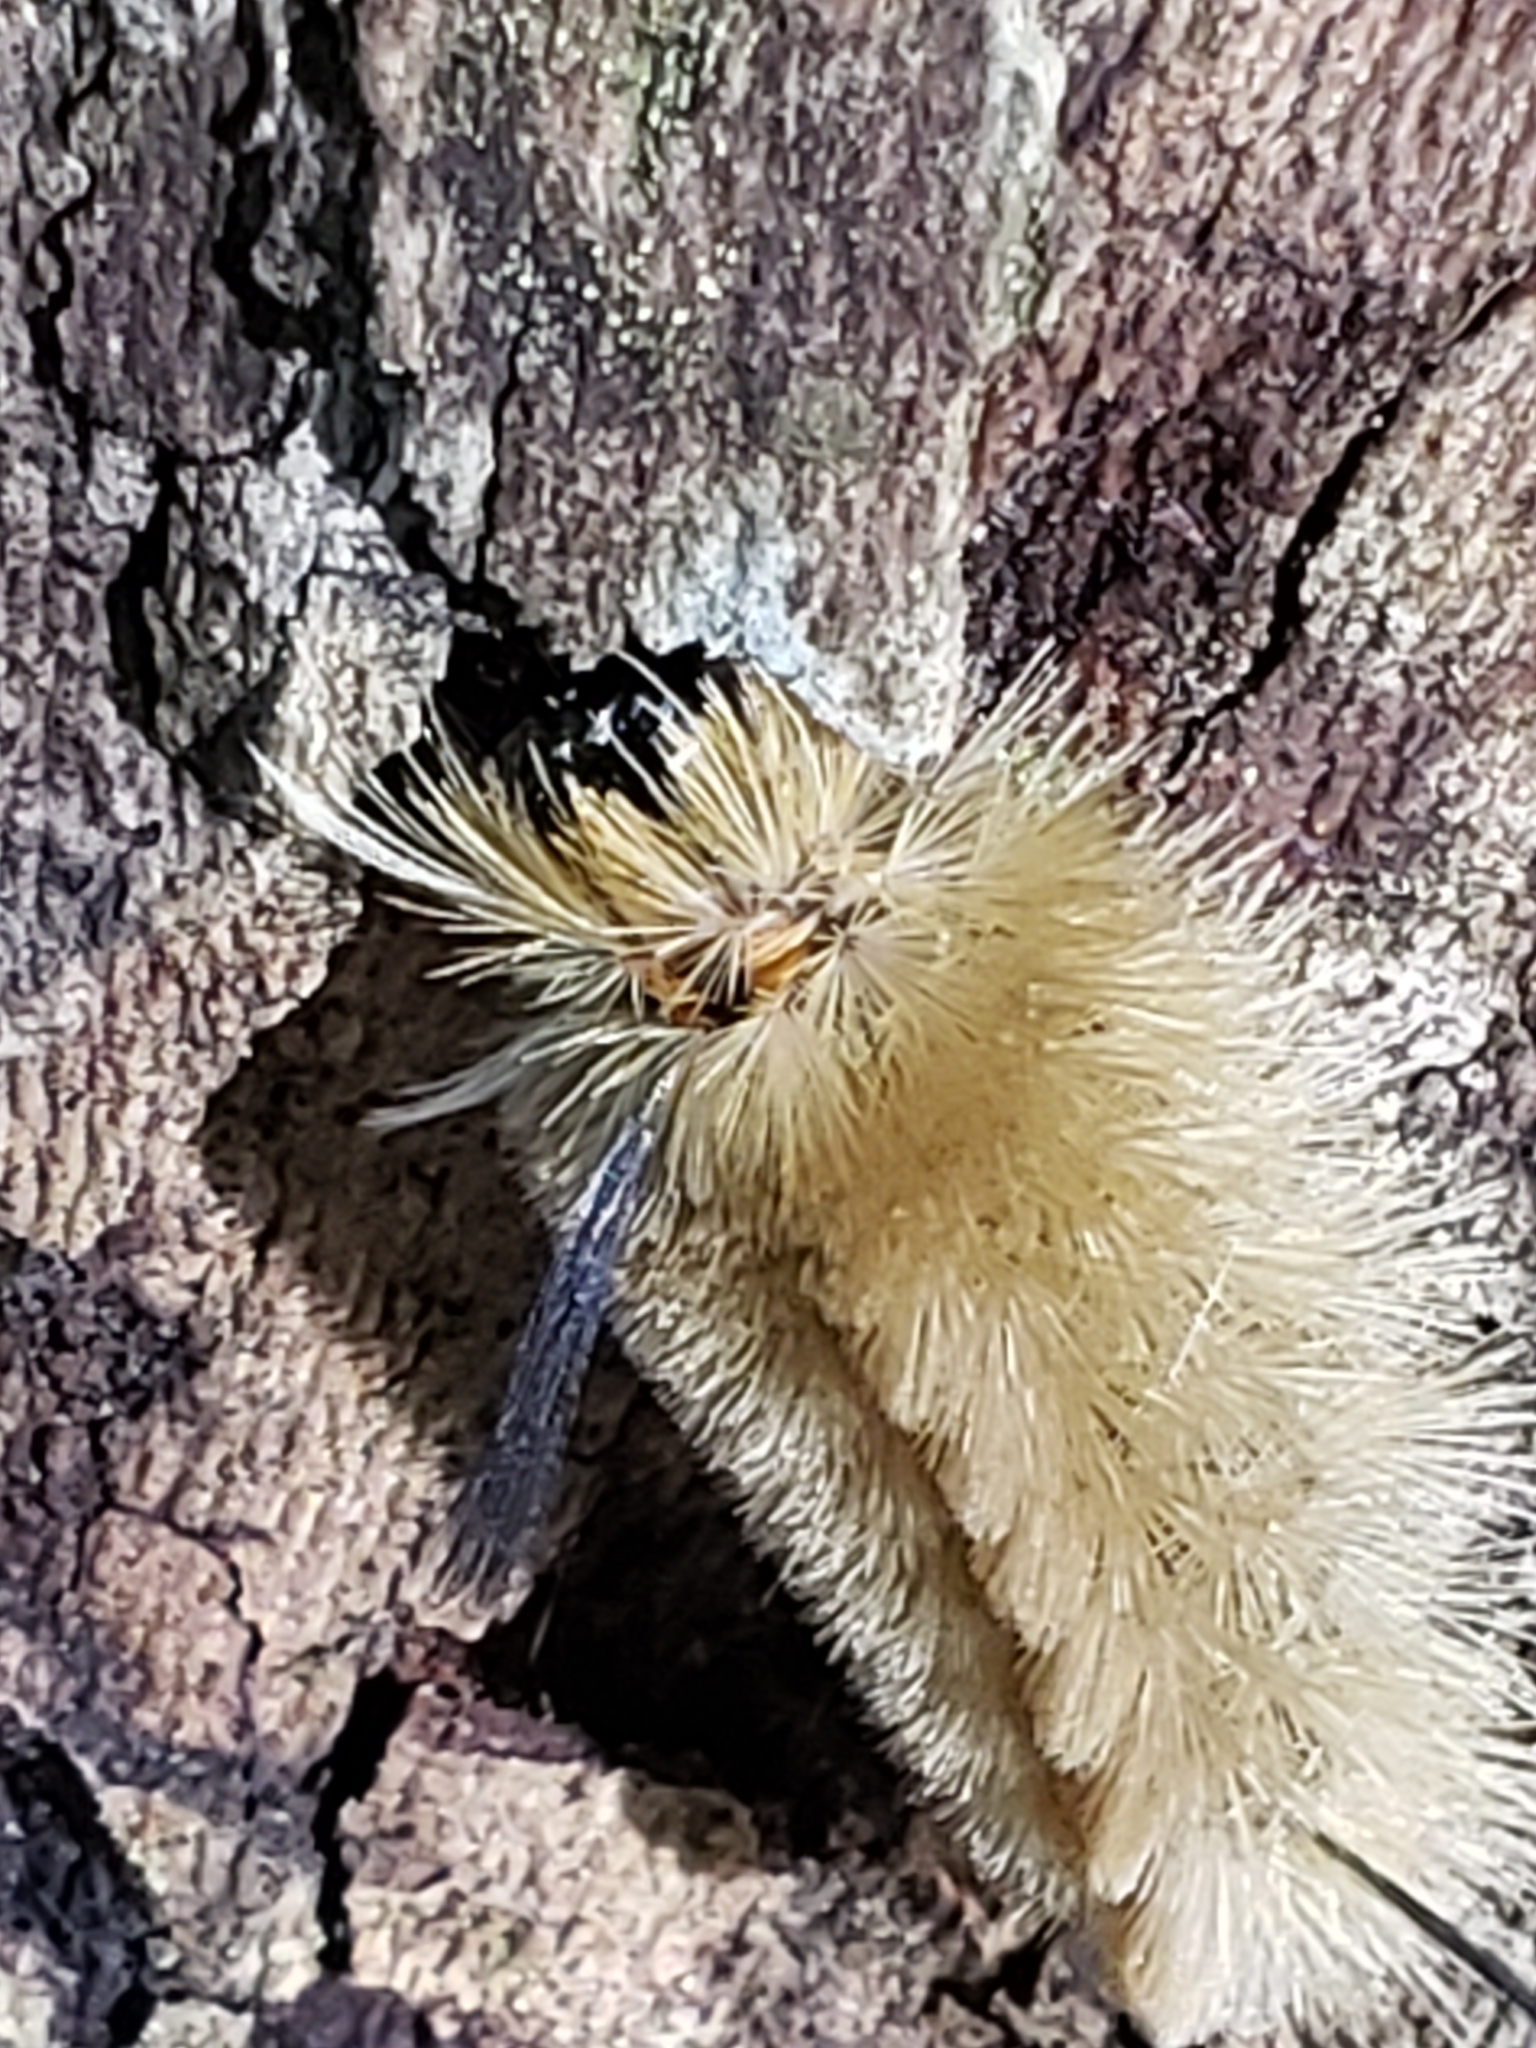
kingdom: Animalia
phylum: Arthropoda
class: Insecta
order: Lepidoptera
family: Erebidae
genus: Halysidota
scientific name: Halysidota tessellaris
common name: Banded tussock moth
